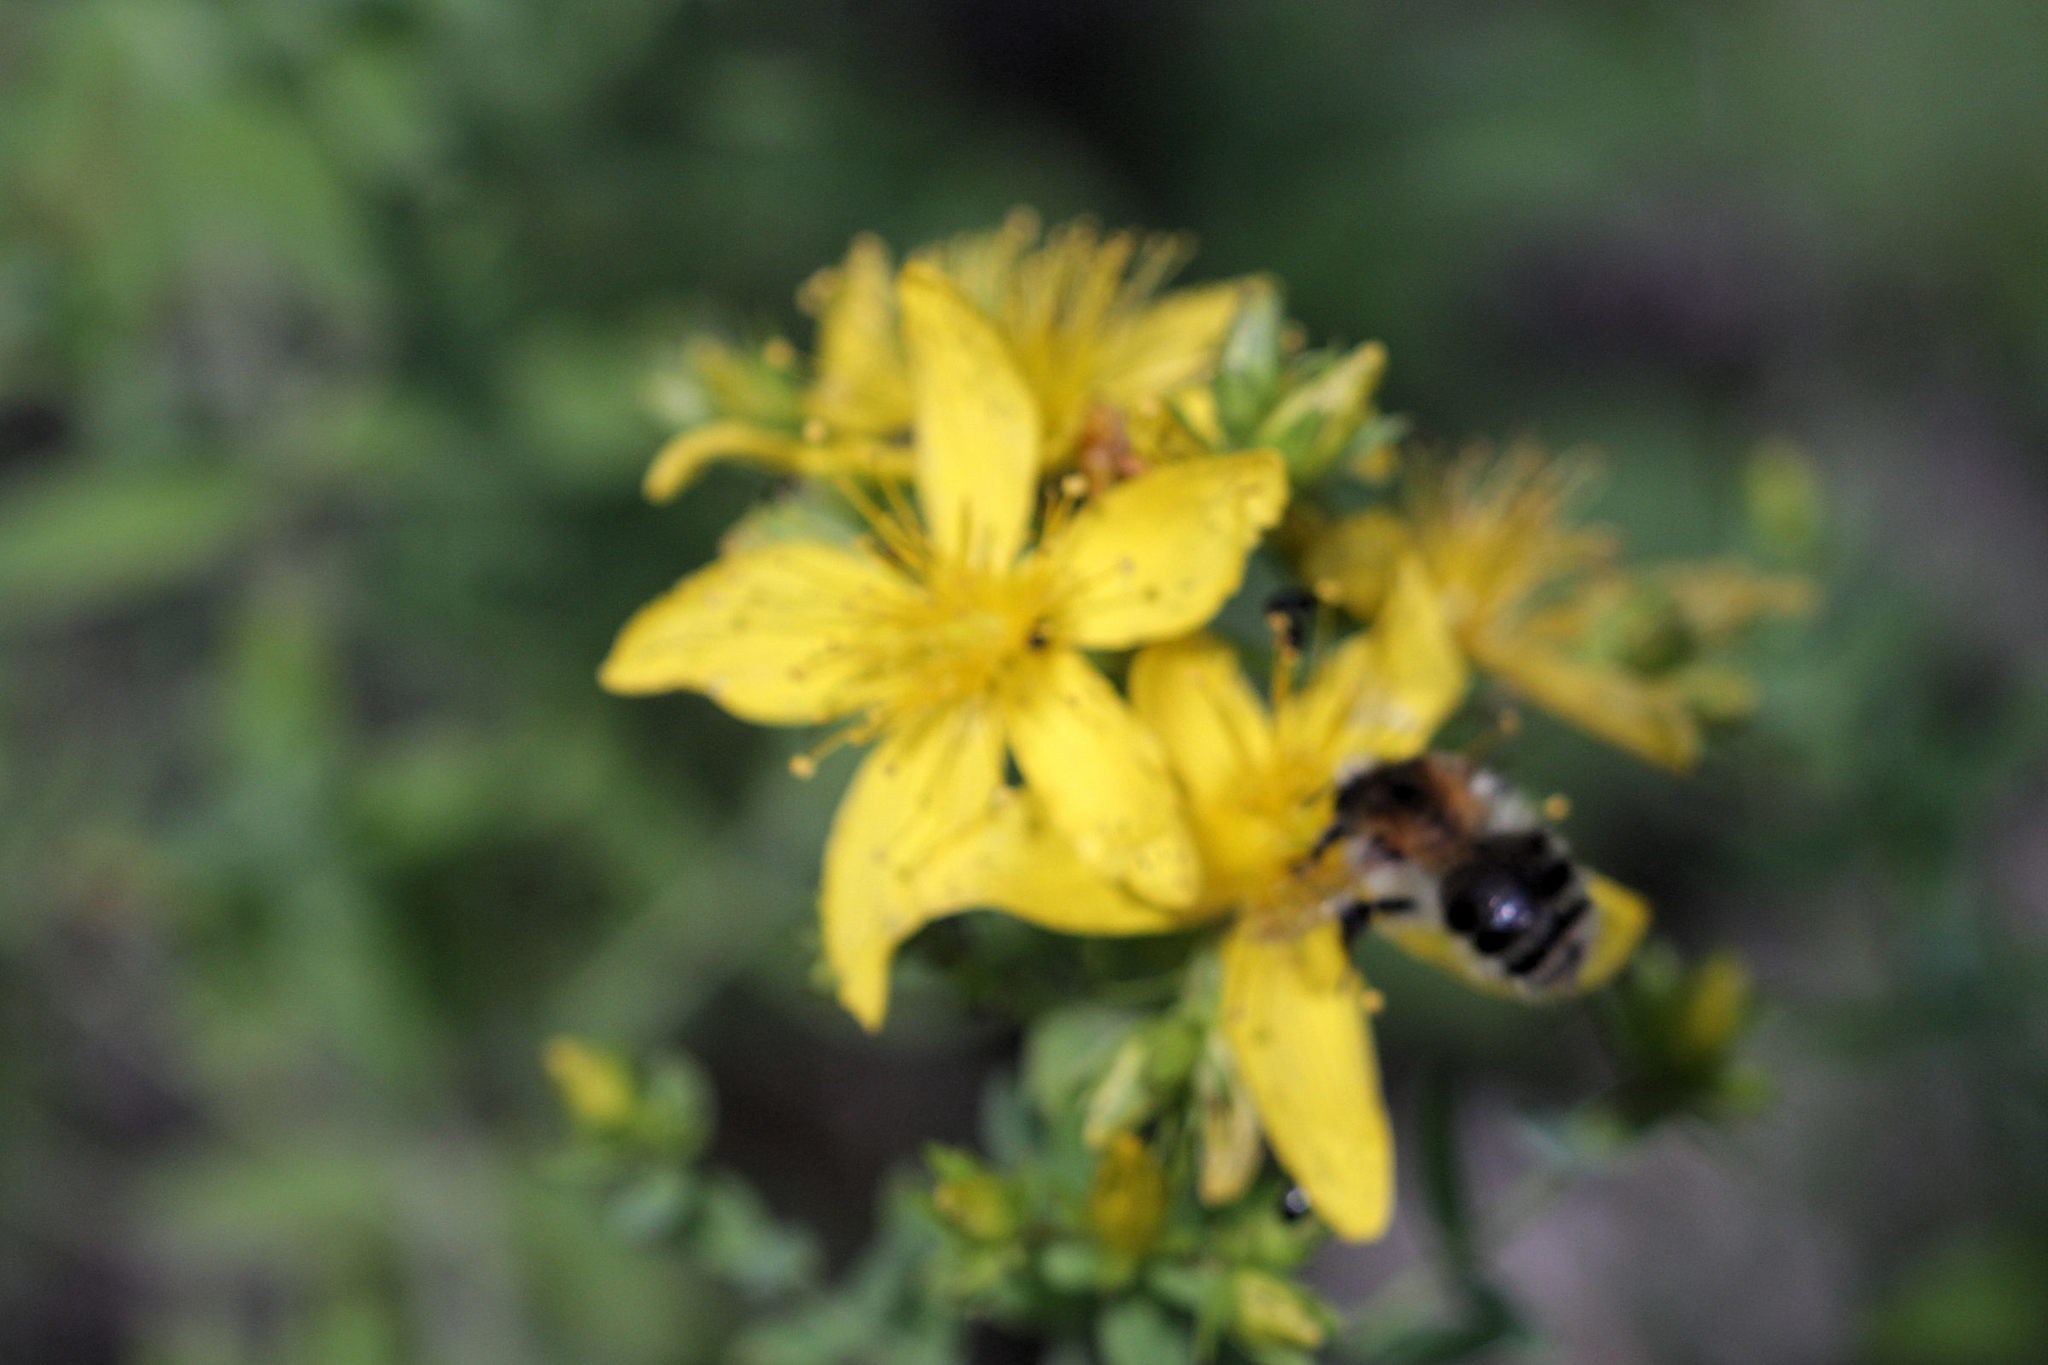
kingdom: Animalia
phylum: Arthropoda
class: Insecta
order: Hymenoptera
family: Apidae
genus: Bombus
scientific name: Bombus pascuorum
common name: Common carder bee
